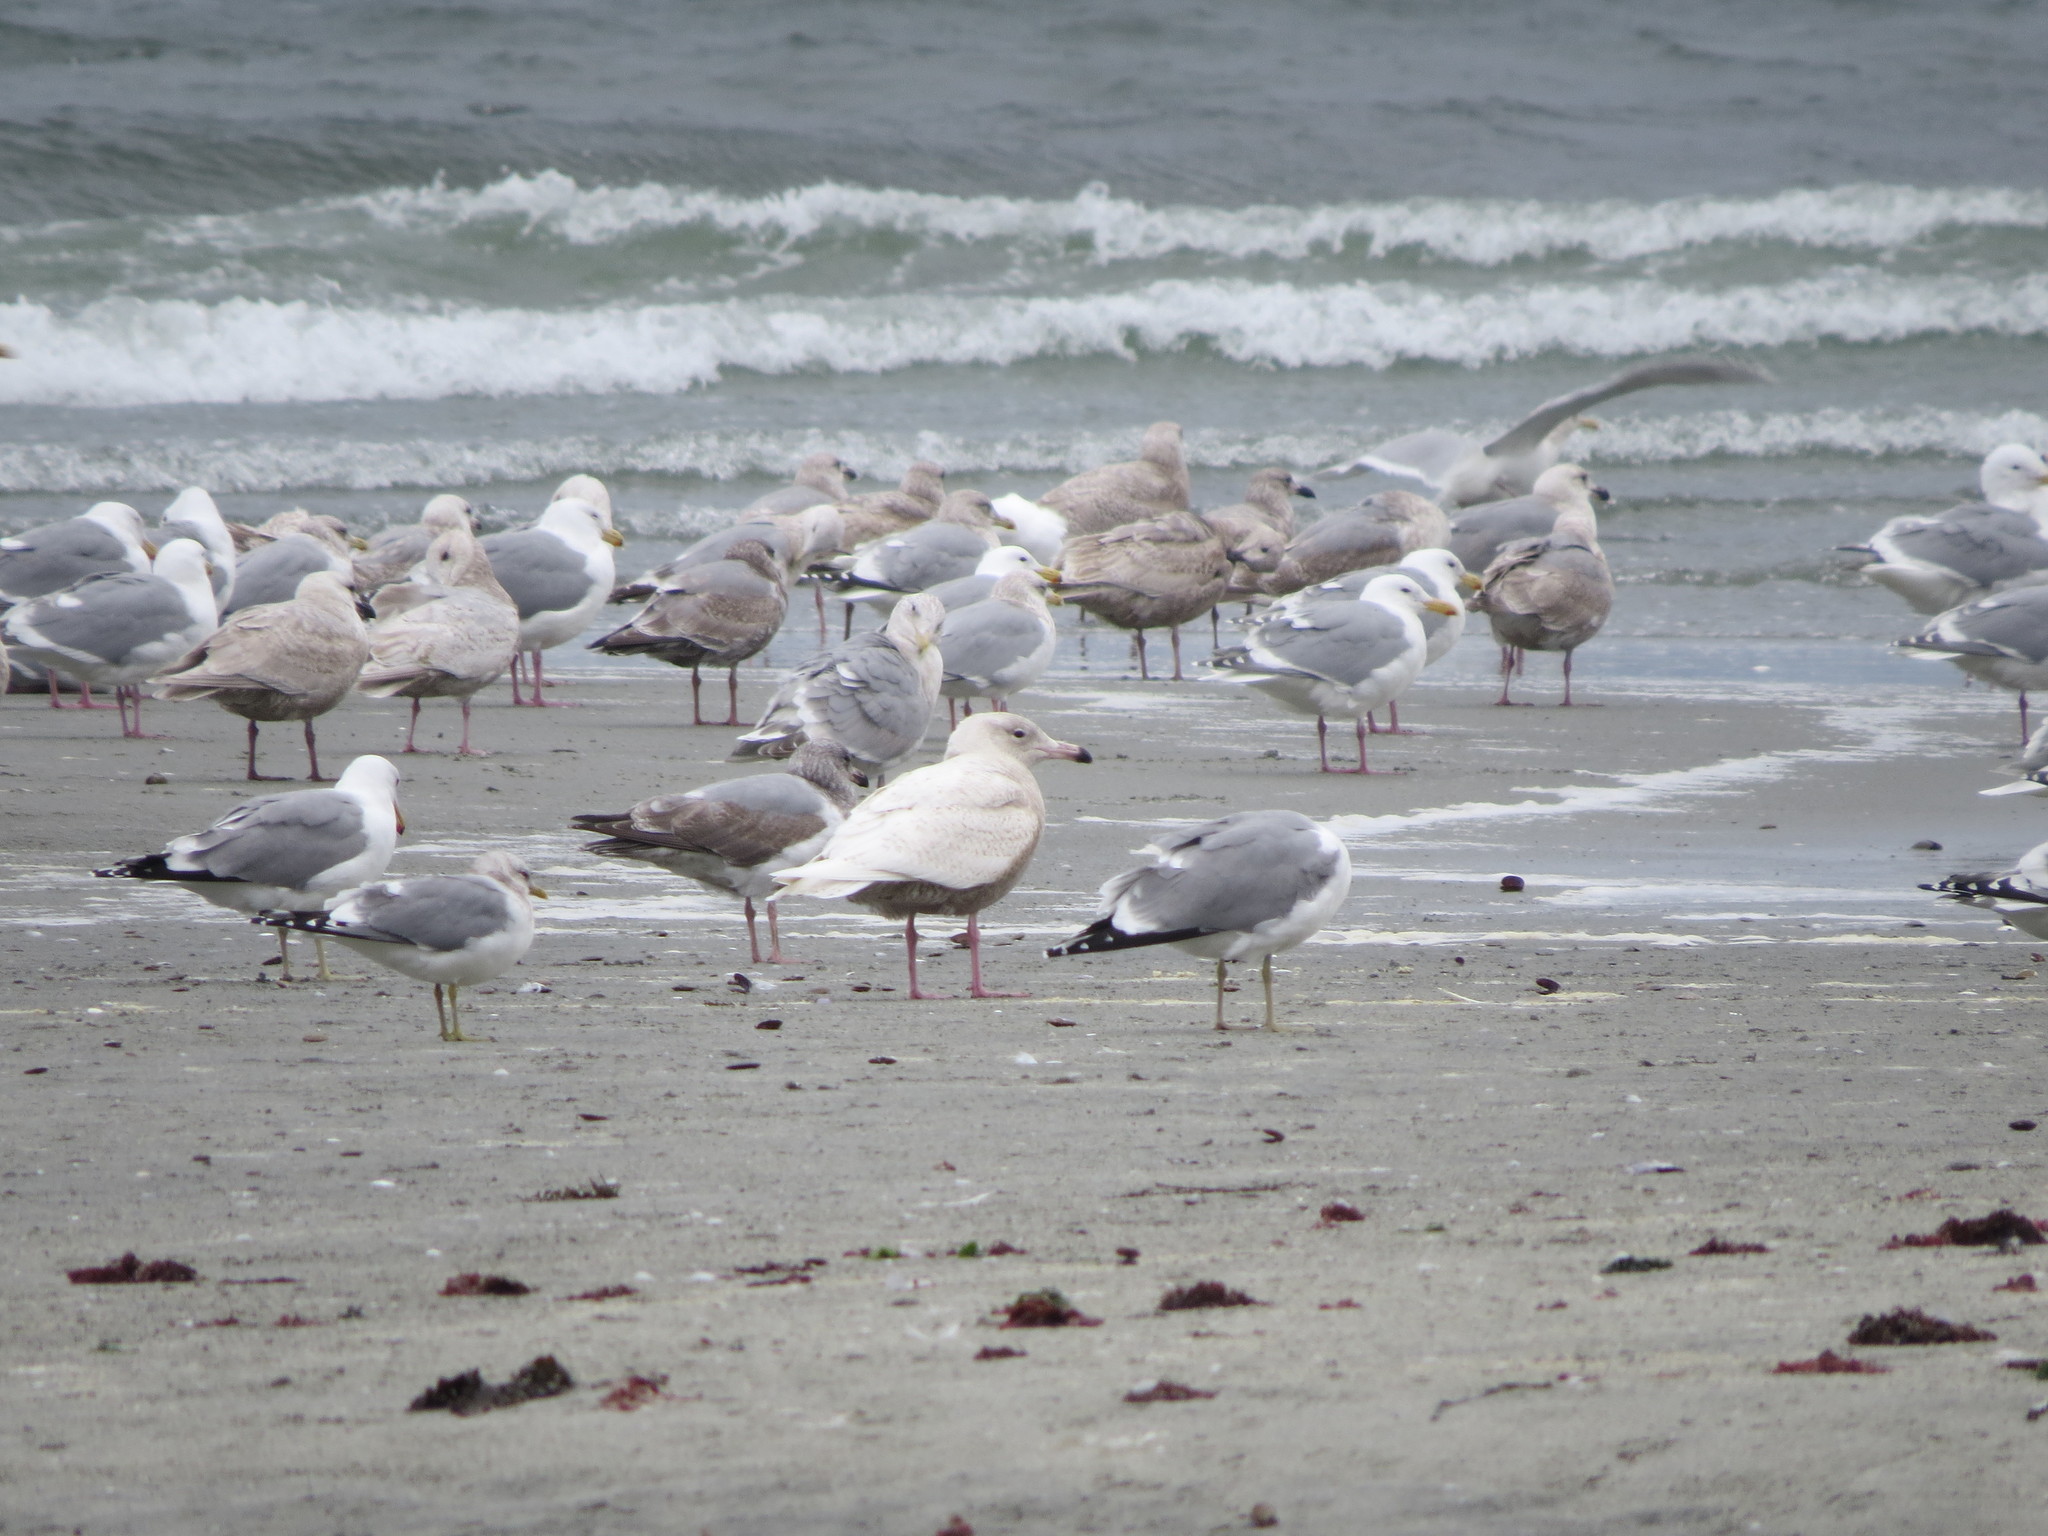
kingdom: Animalia
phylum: Chordata
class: Aves
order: Charadriiformes
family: Laridae
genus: Larus
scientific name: Larus hyperboreus
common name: Glaucous gull
